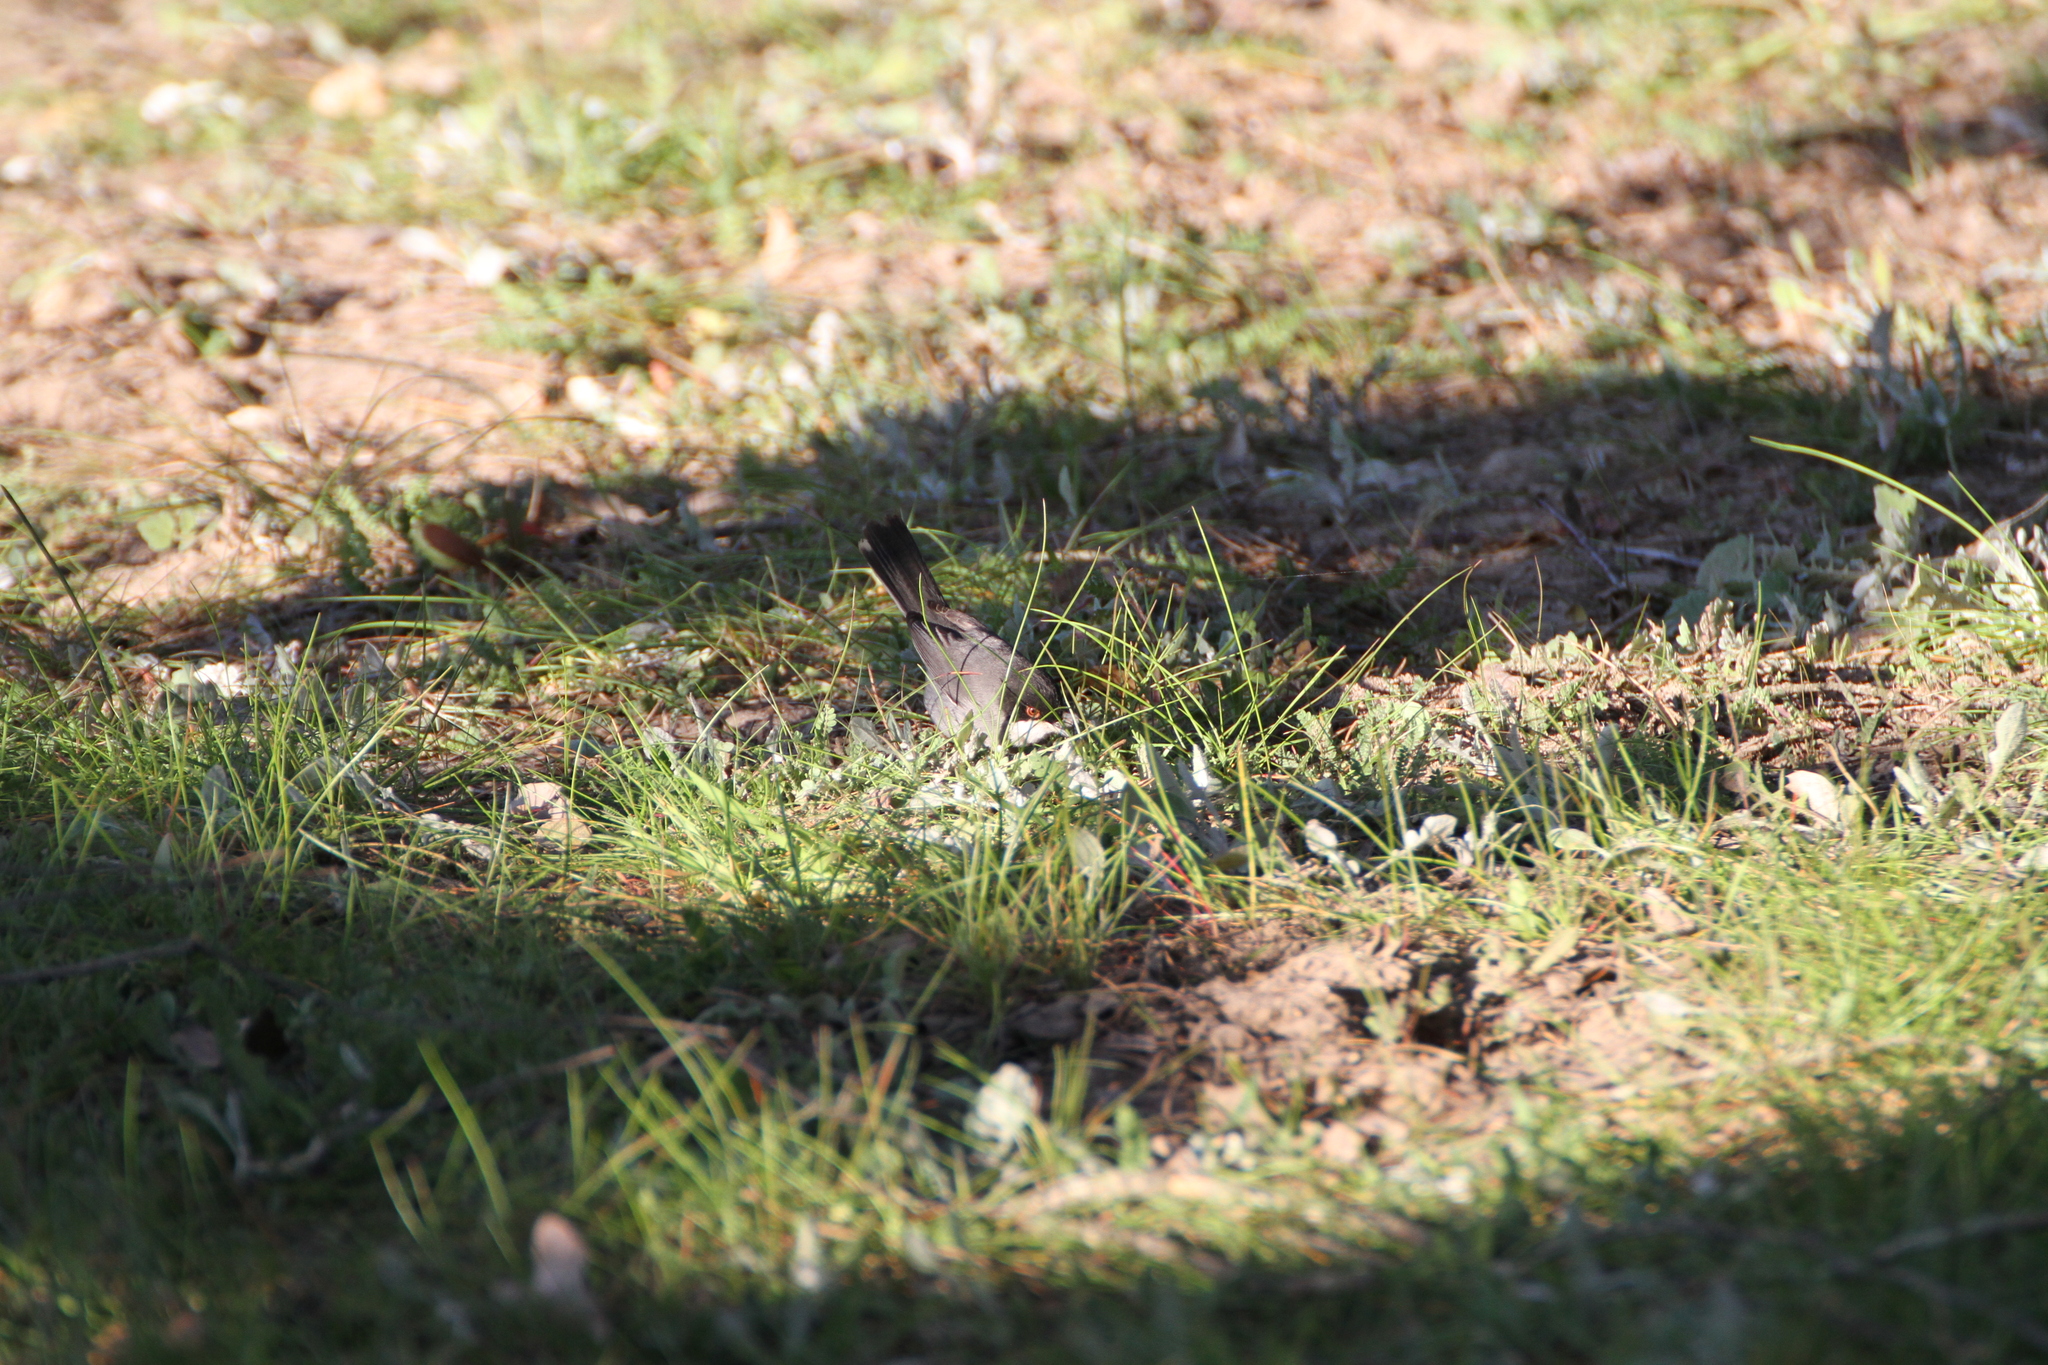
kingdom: Animalia
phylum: Chordata
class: Aves
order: Passeriformes
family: Sylviidae
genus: Curruca
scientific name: Curruca melanocephala
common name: Sardinian warbler
